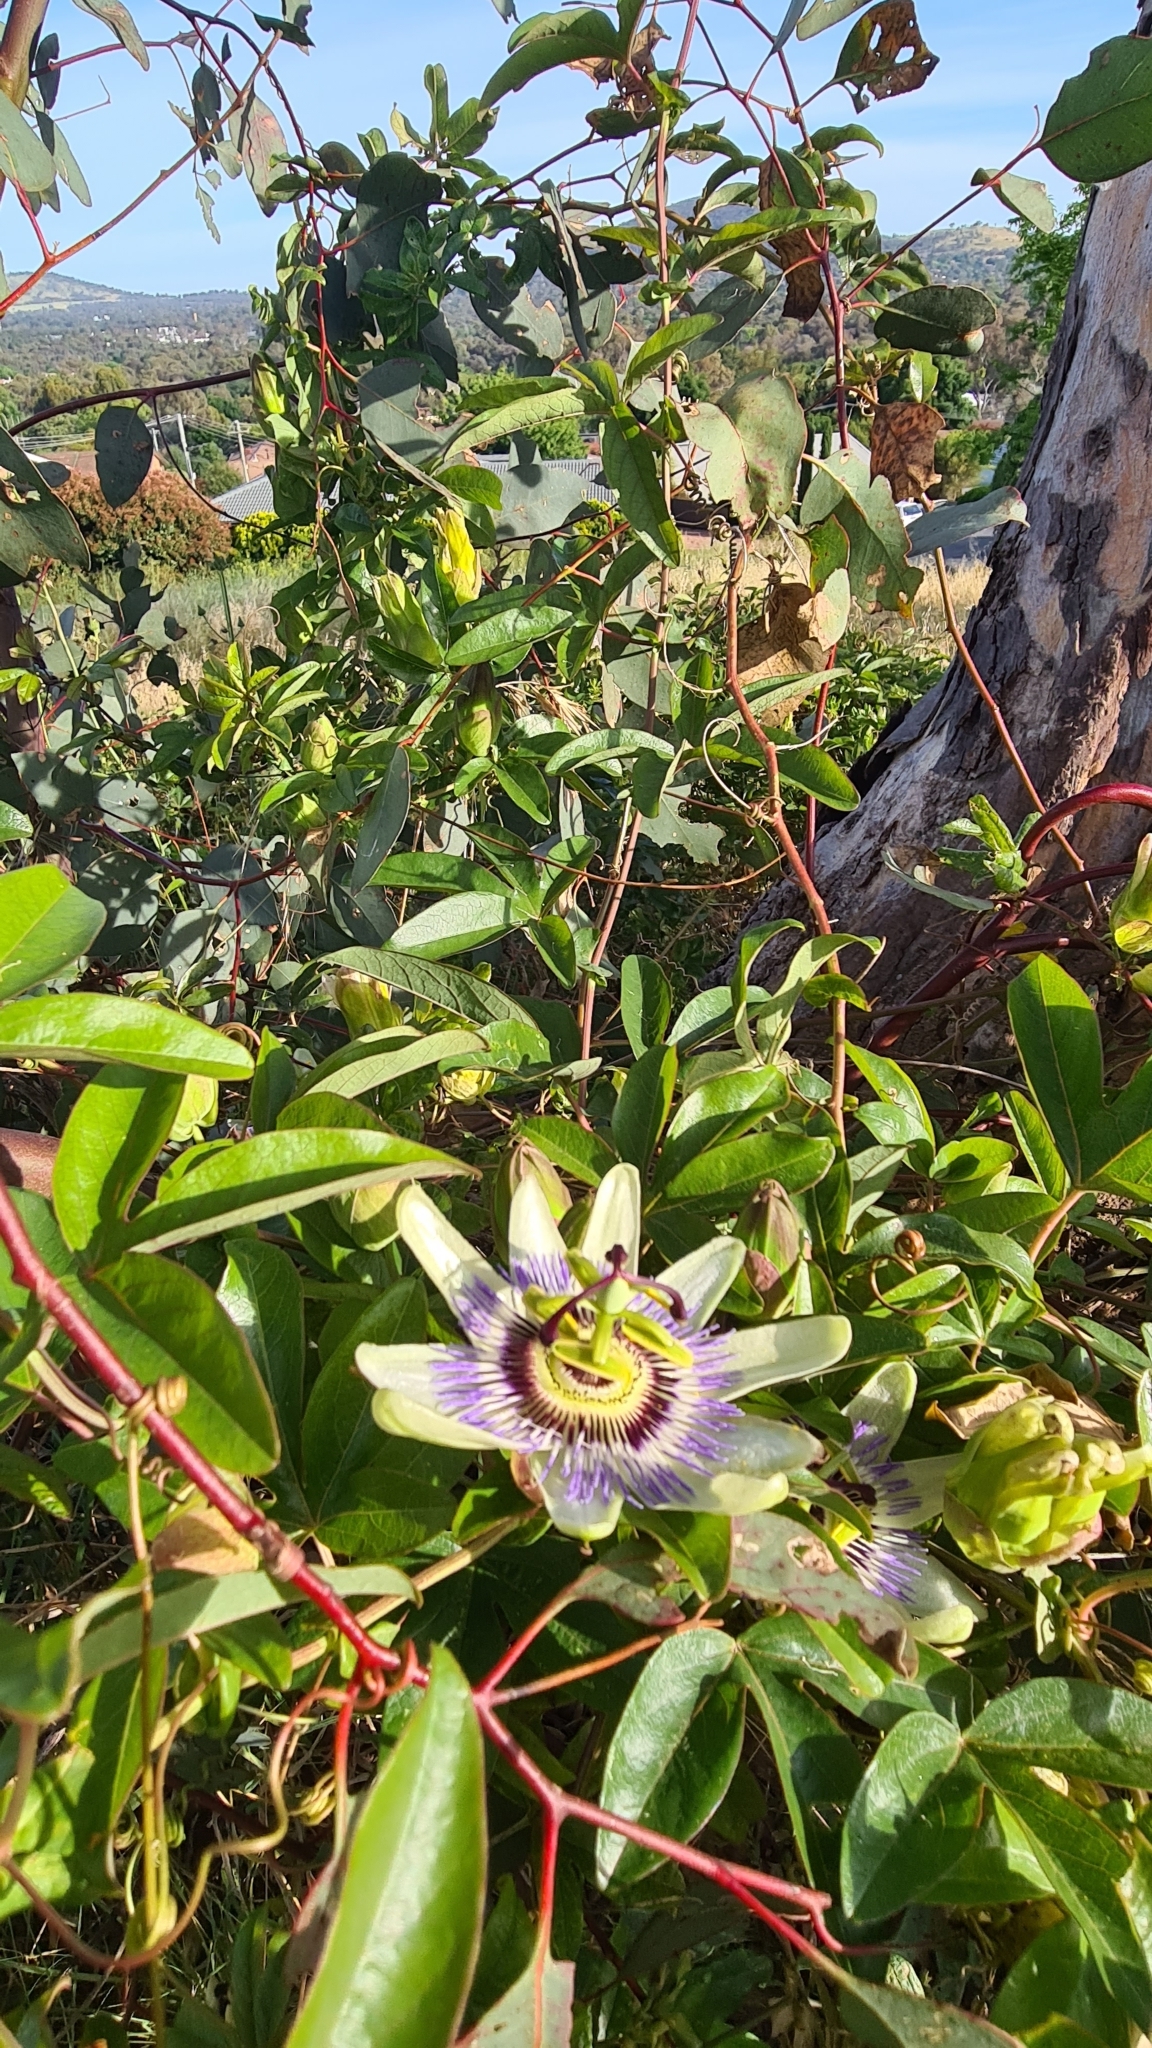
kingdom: Plantae
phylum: Tracheophyta
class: Magnoliopsida
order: Malpighiales
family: Passifloraceae
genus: Passiflora
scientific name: Passiflora caerulea
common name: Blue passionflower
